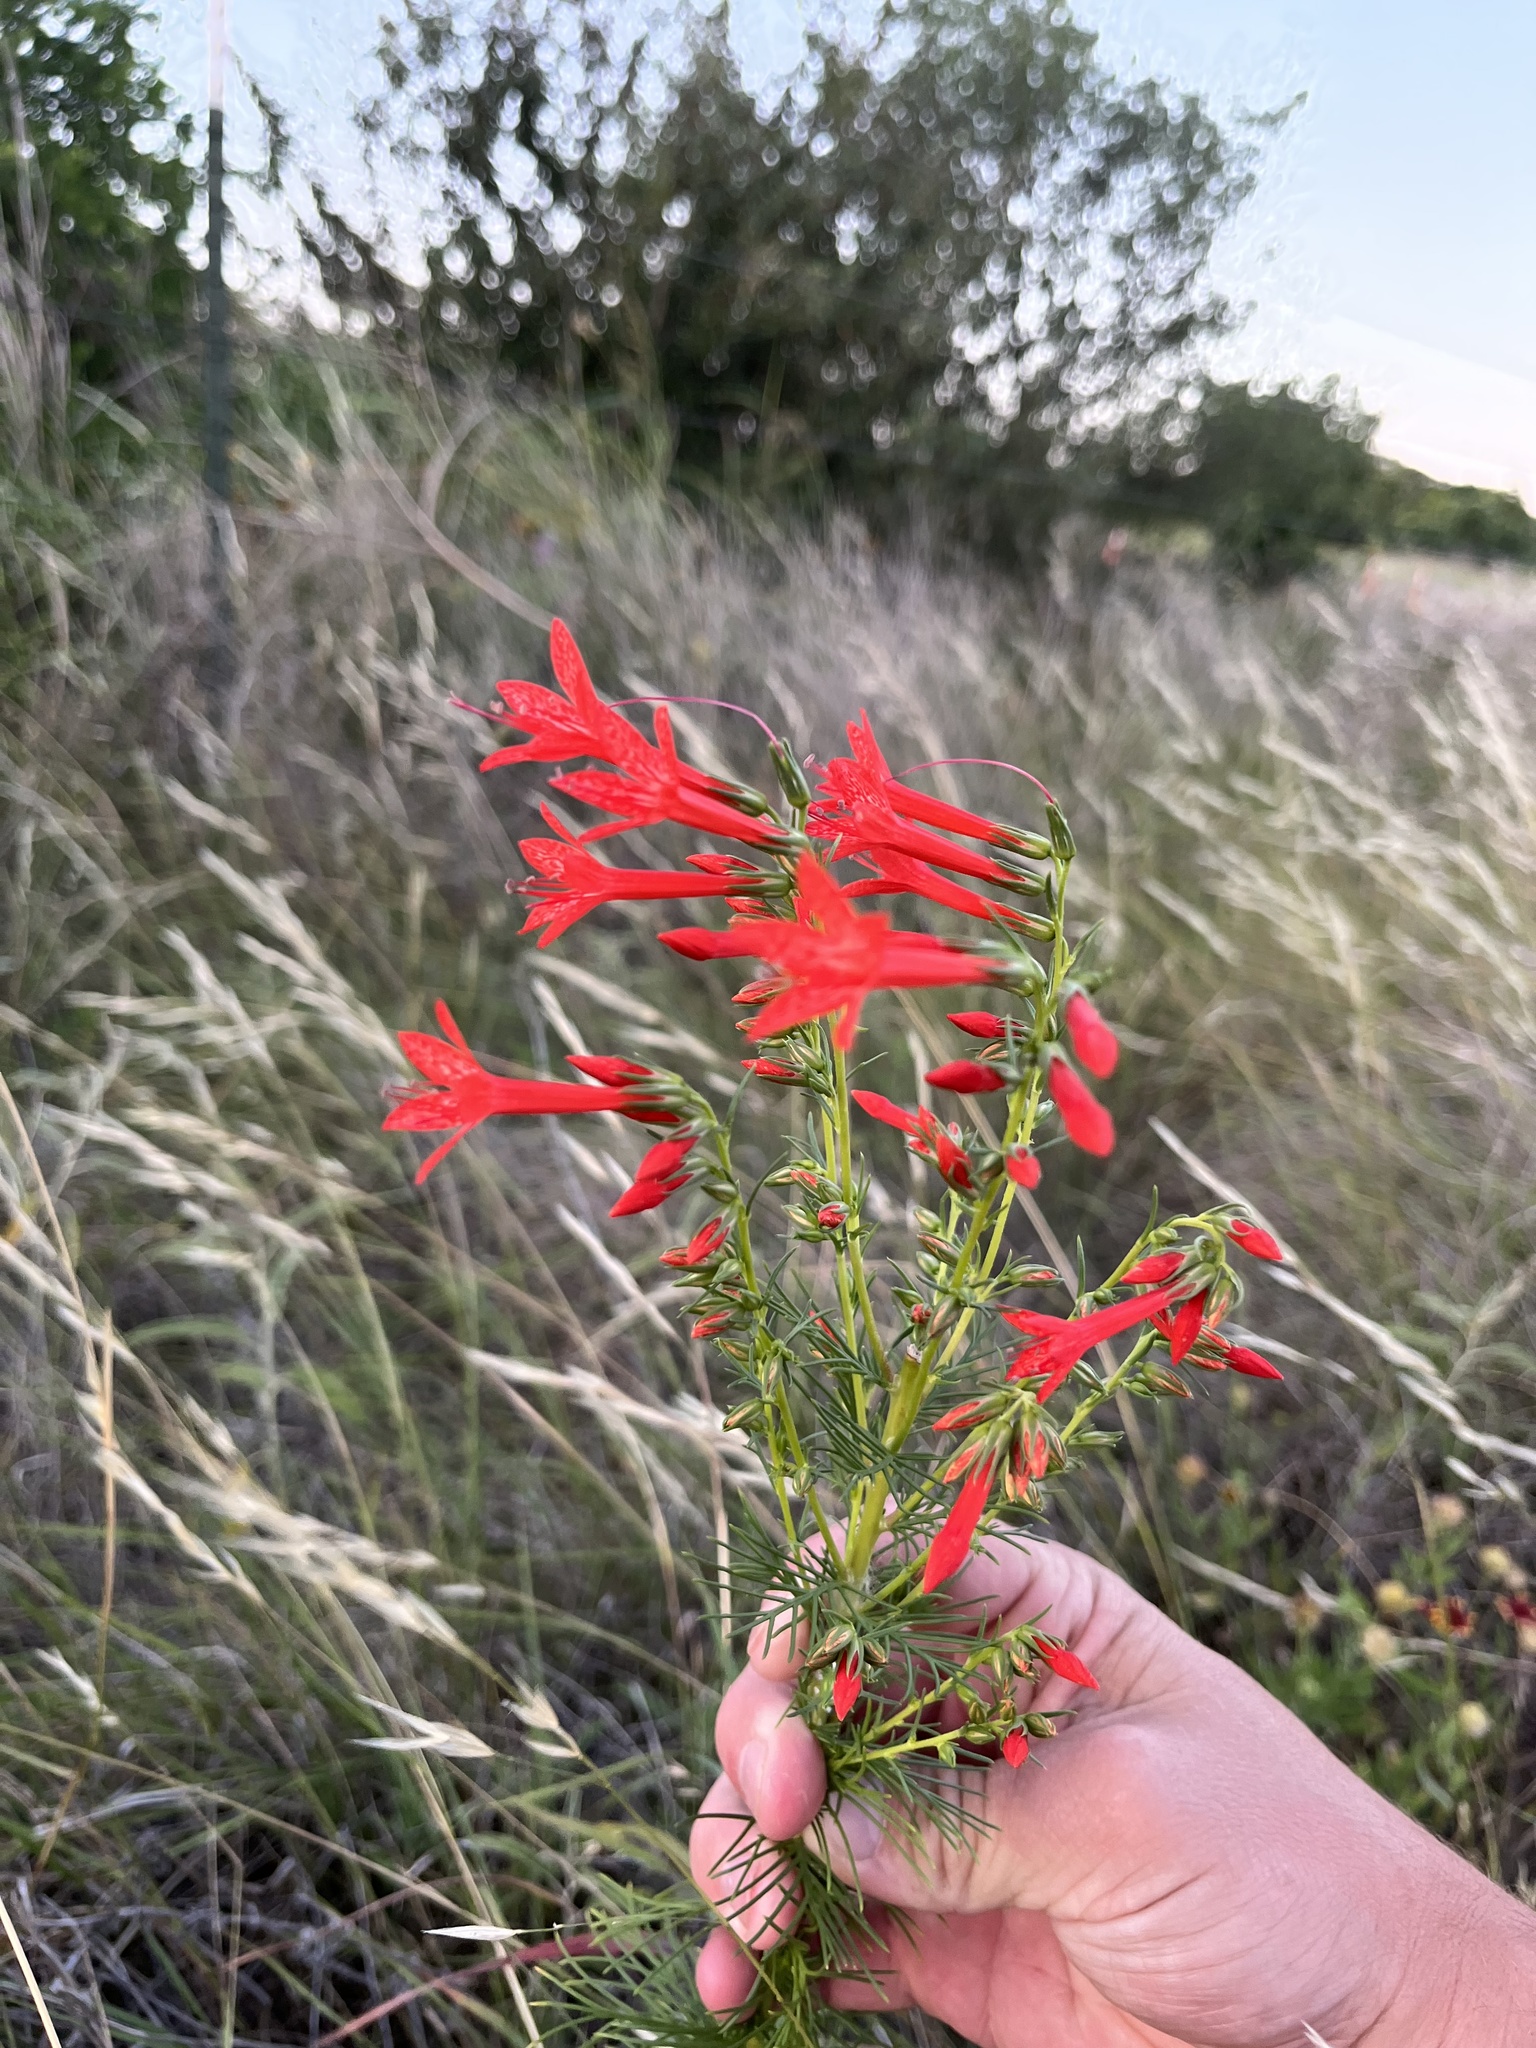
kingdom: Plantae
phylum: Tracheophyta
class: Magnoliopsida
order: Ericales
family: Polemoniaceae
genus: Ipomopsis
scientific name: Ipomopsis rubra
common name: Skyrocket
